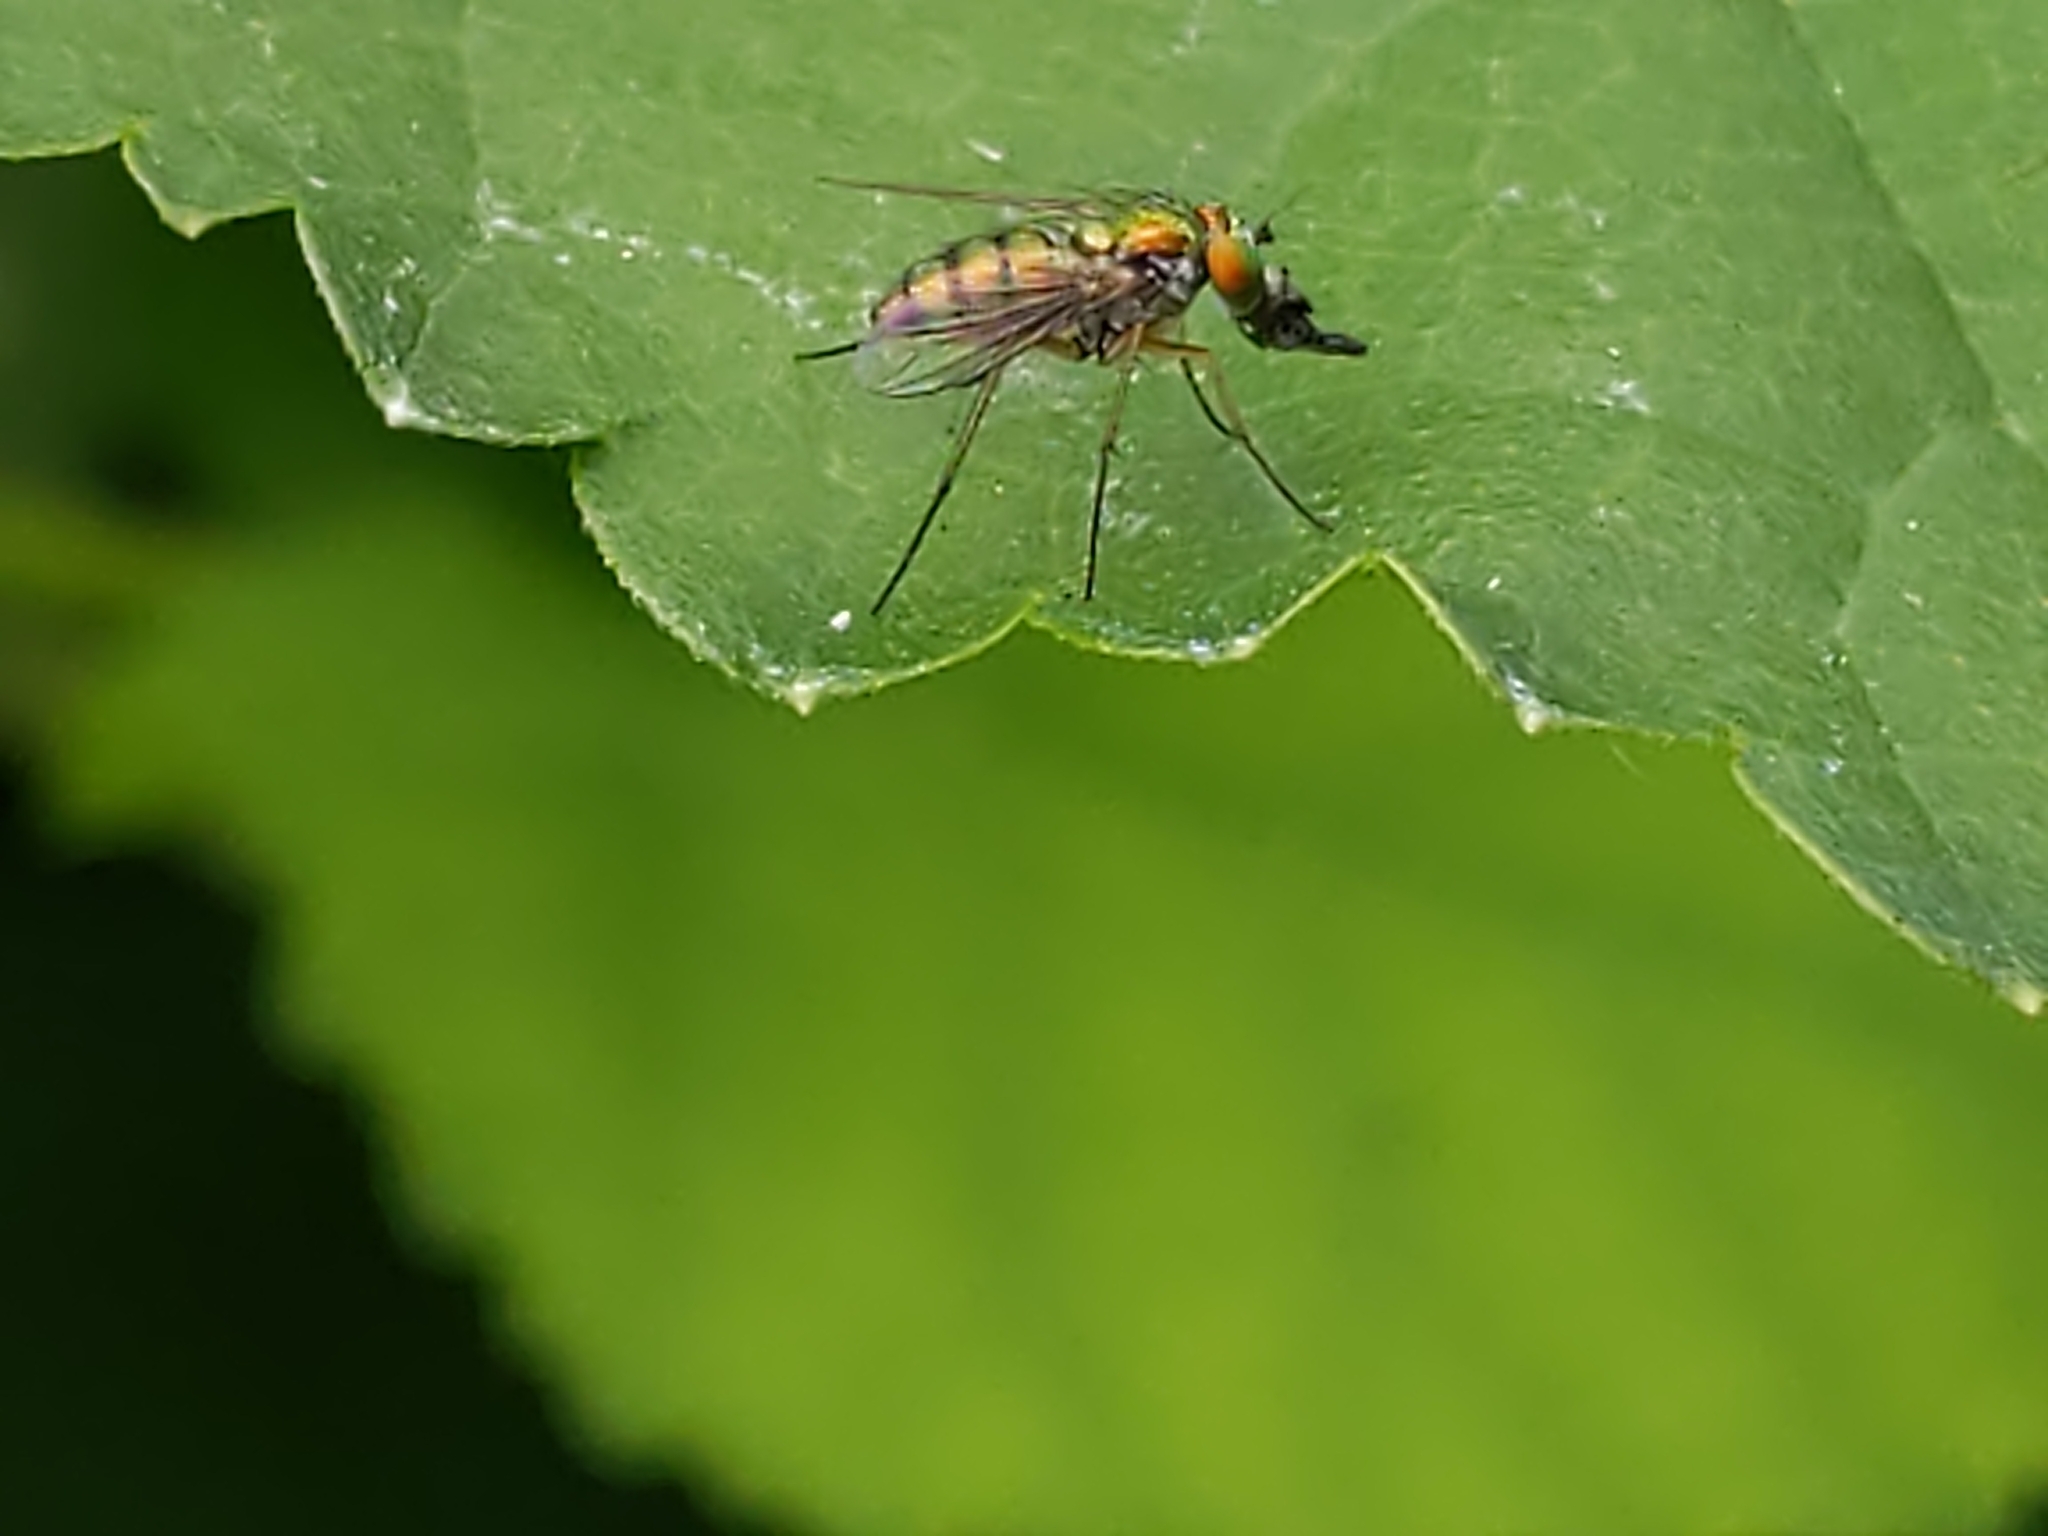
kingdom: Animalia
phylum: Arthropoda
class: Insecta
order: Diptera
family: Dolichopodidae
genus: Condylostylus
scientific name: Condylostylus
